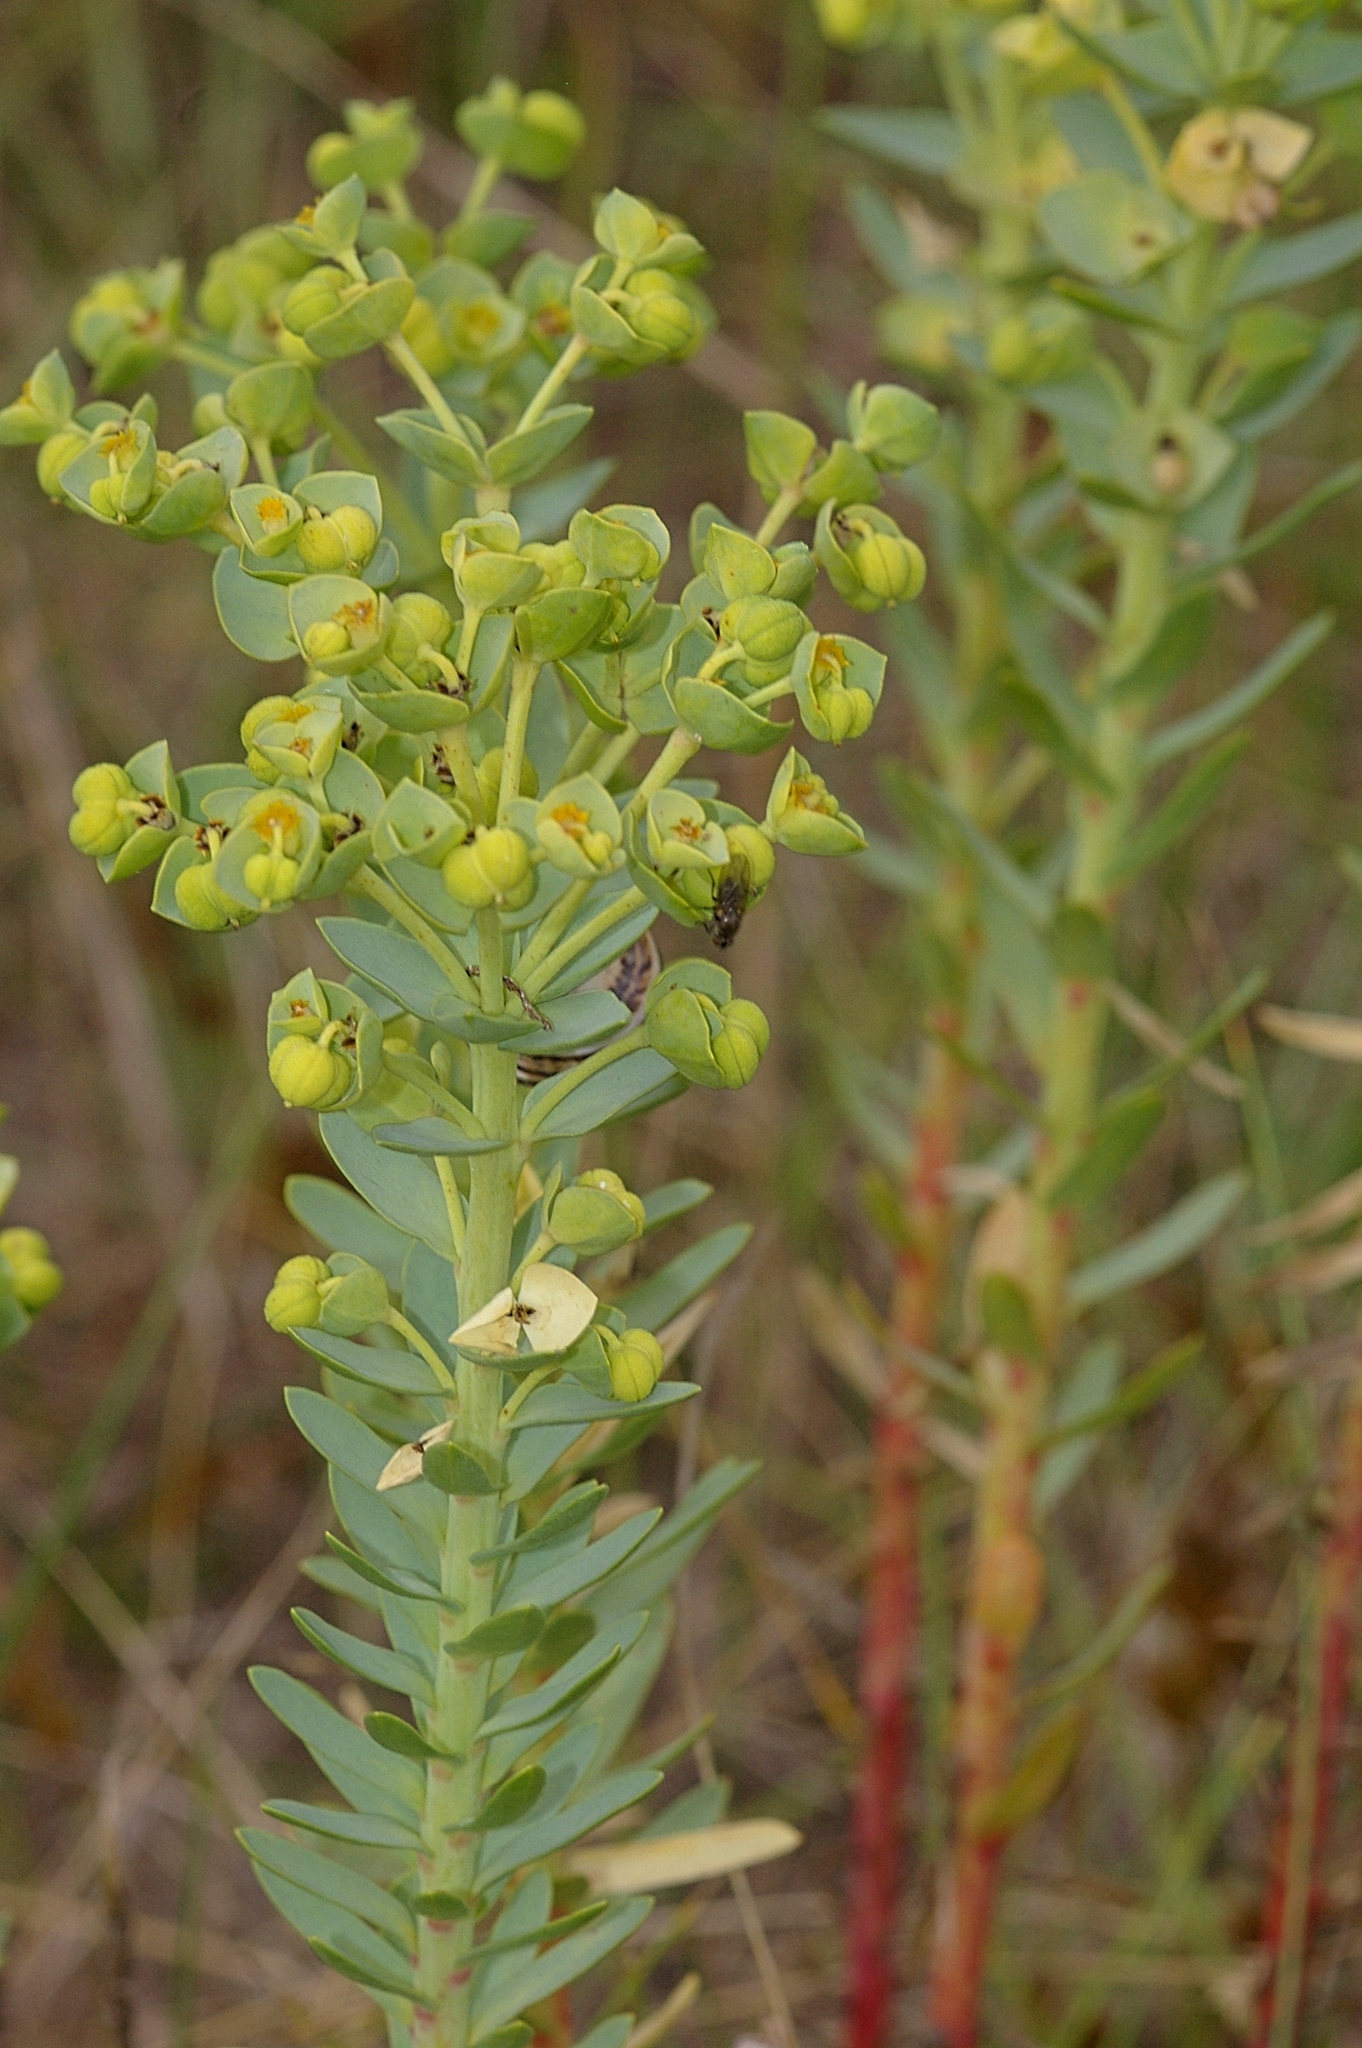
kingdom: Plantae
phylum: Tracheophyta
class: Magnoliopsida
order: Malpighiales
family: Euphorbiaceae
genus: Euphorbia
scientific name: Euphorbia paralias
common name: Sea spurge
